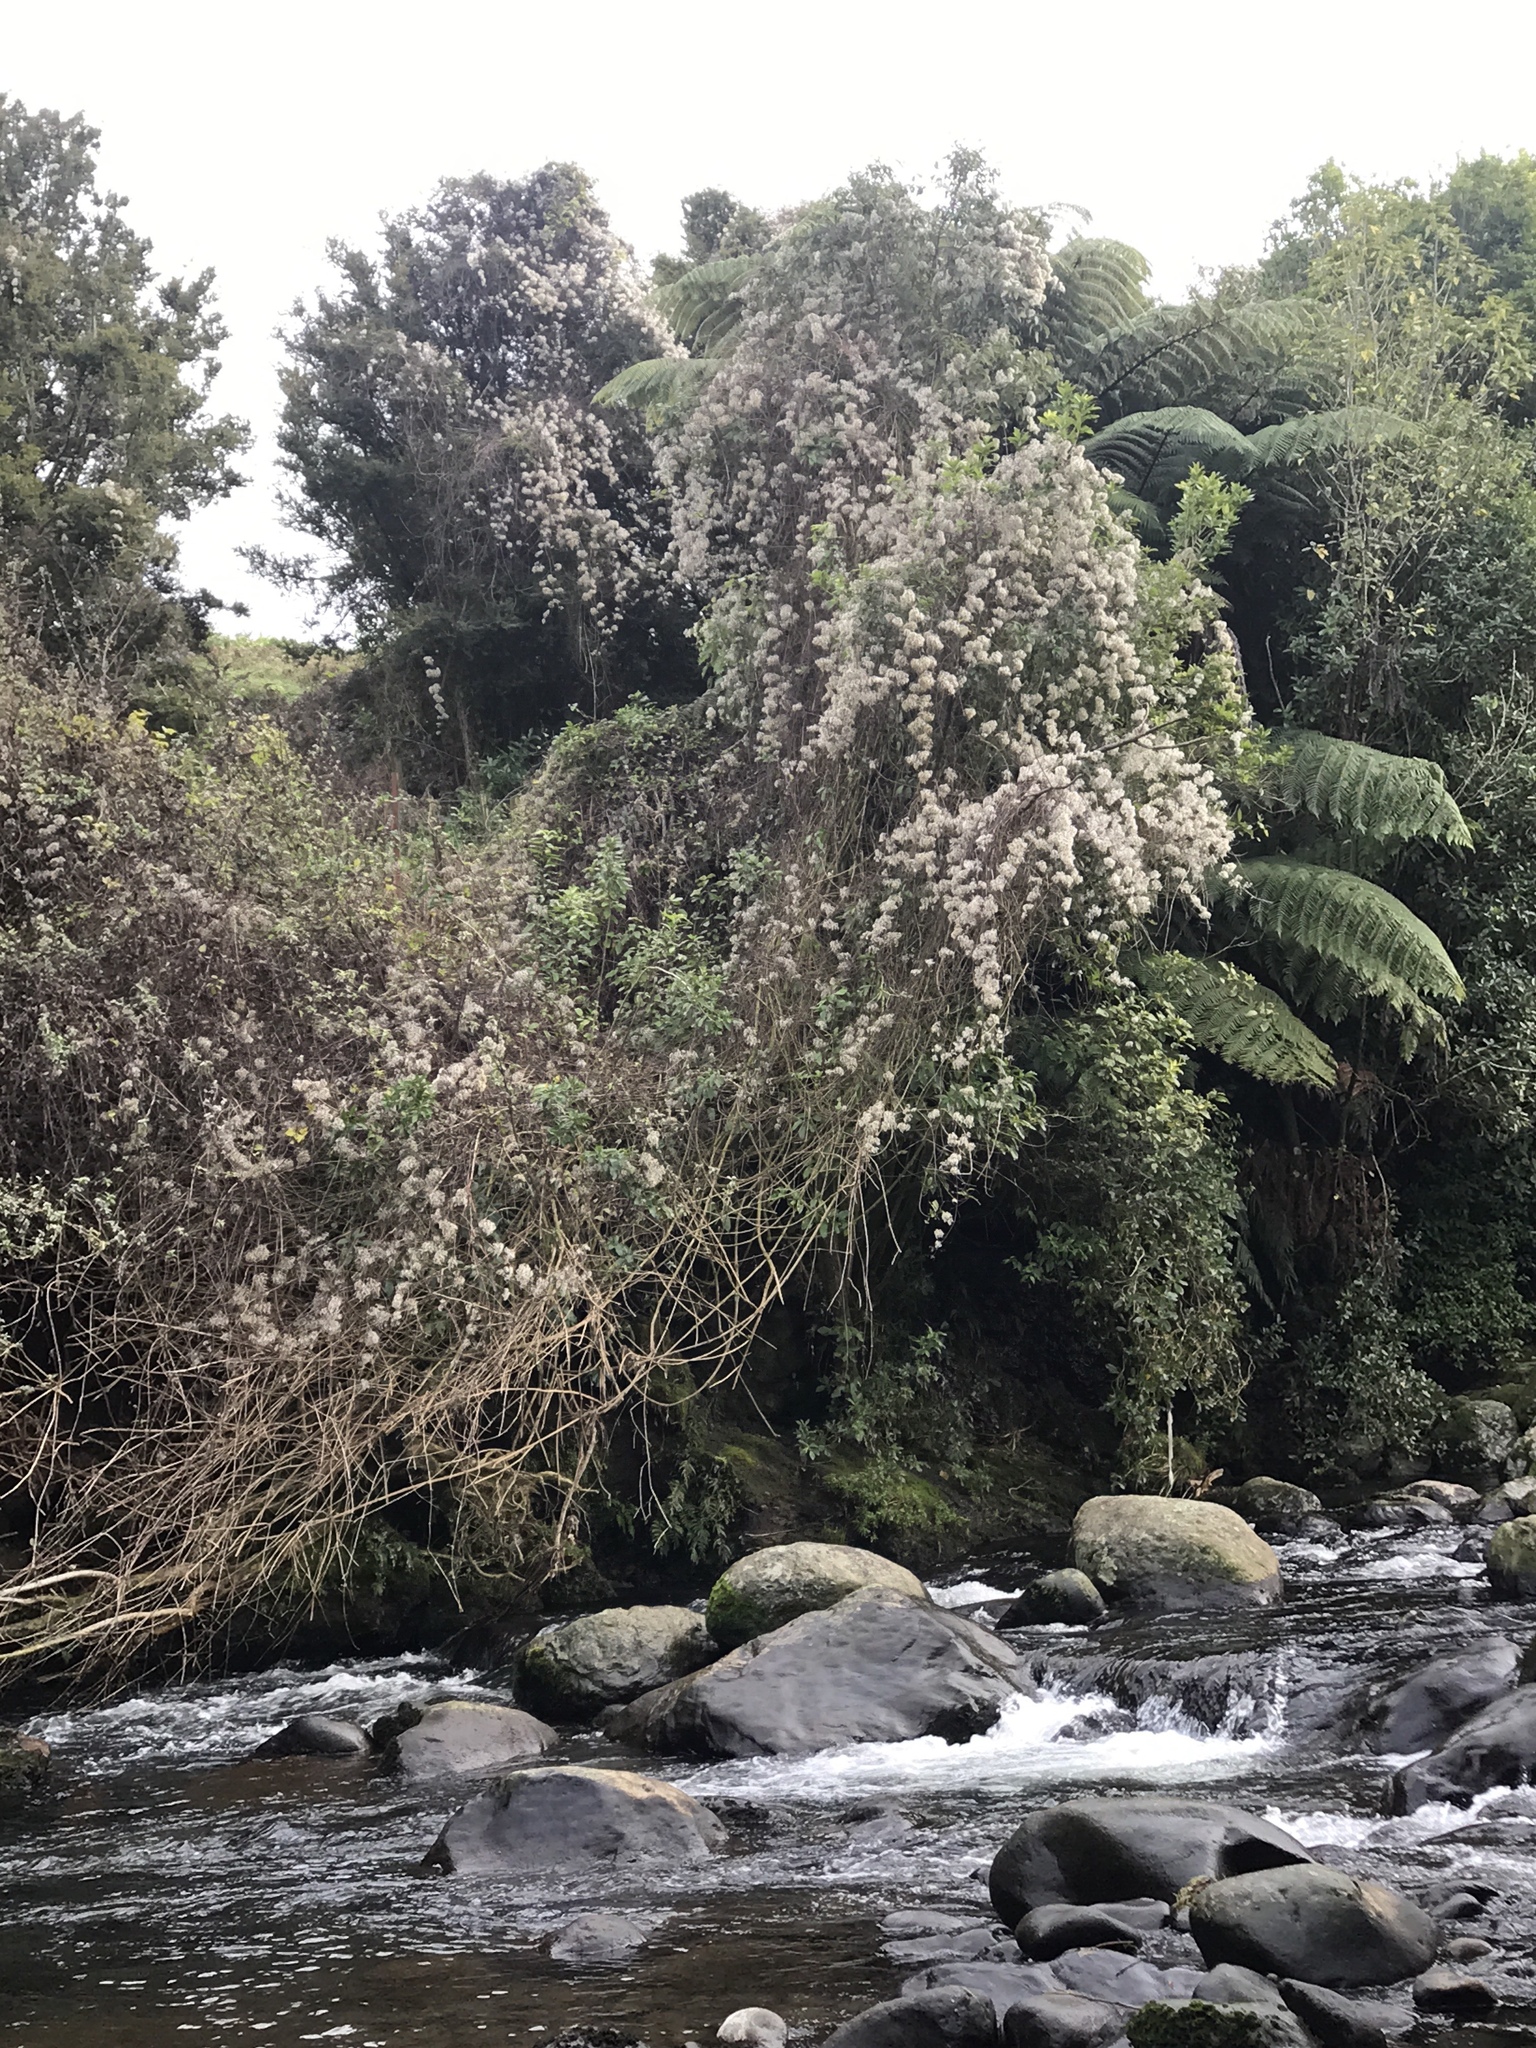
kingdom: Plantae
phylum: Tracheophyta
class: Magnoliopsida
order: Ranunculales
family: Ranunculaceae
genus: Clematis
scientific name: Clematis vitalba
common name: Evergreen clematis
